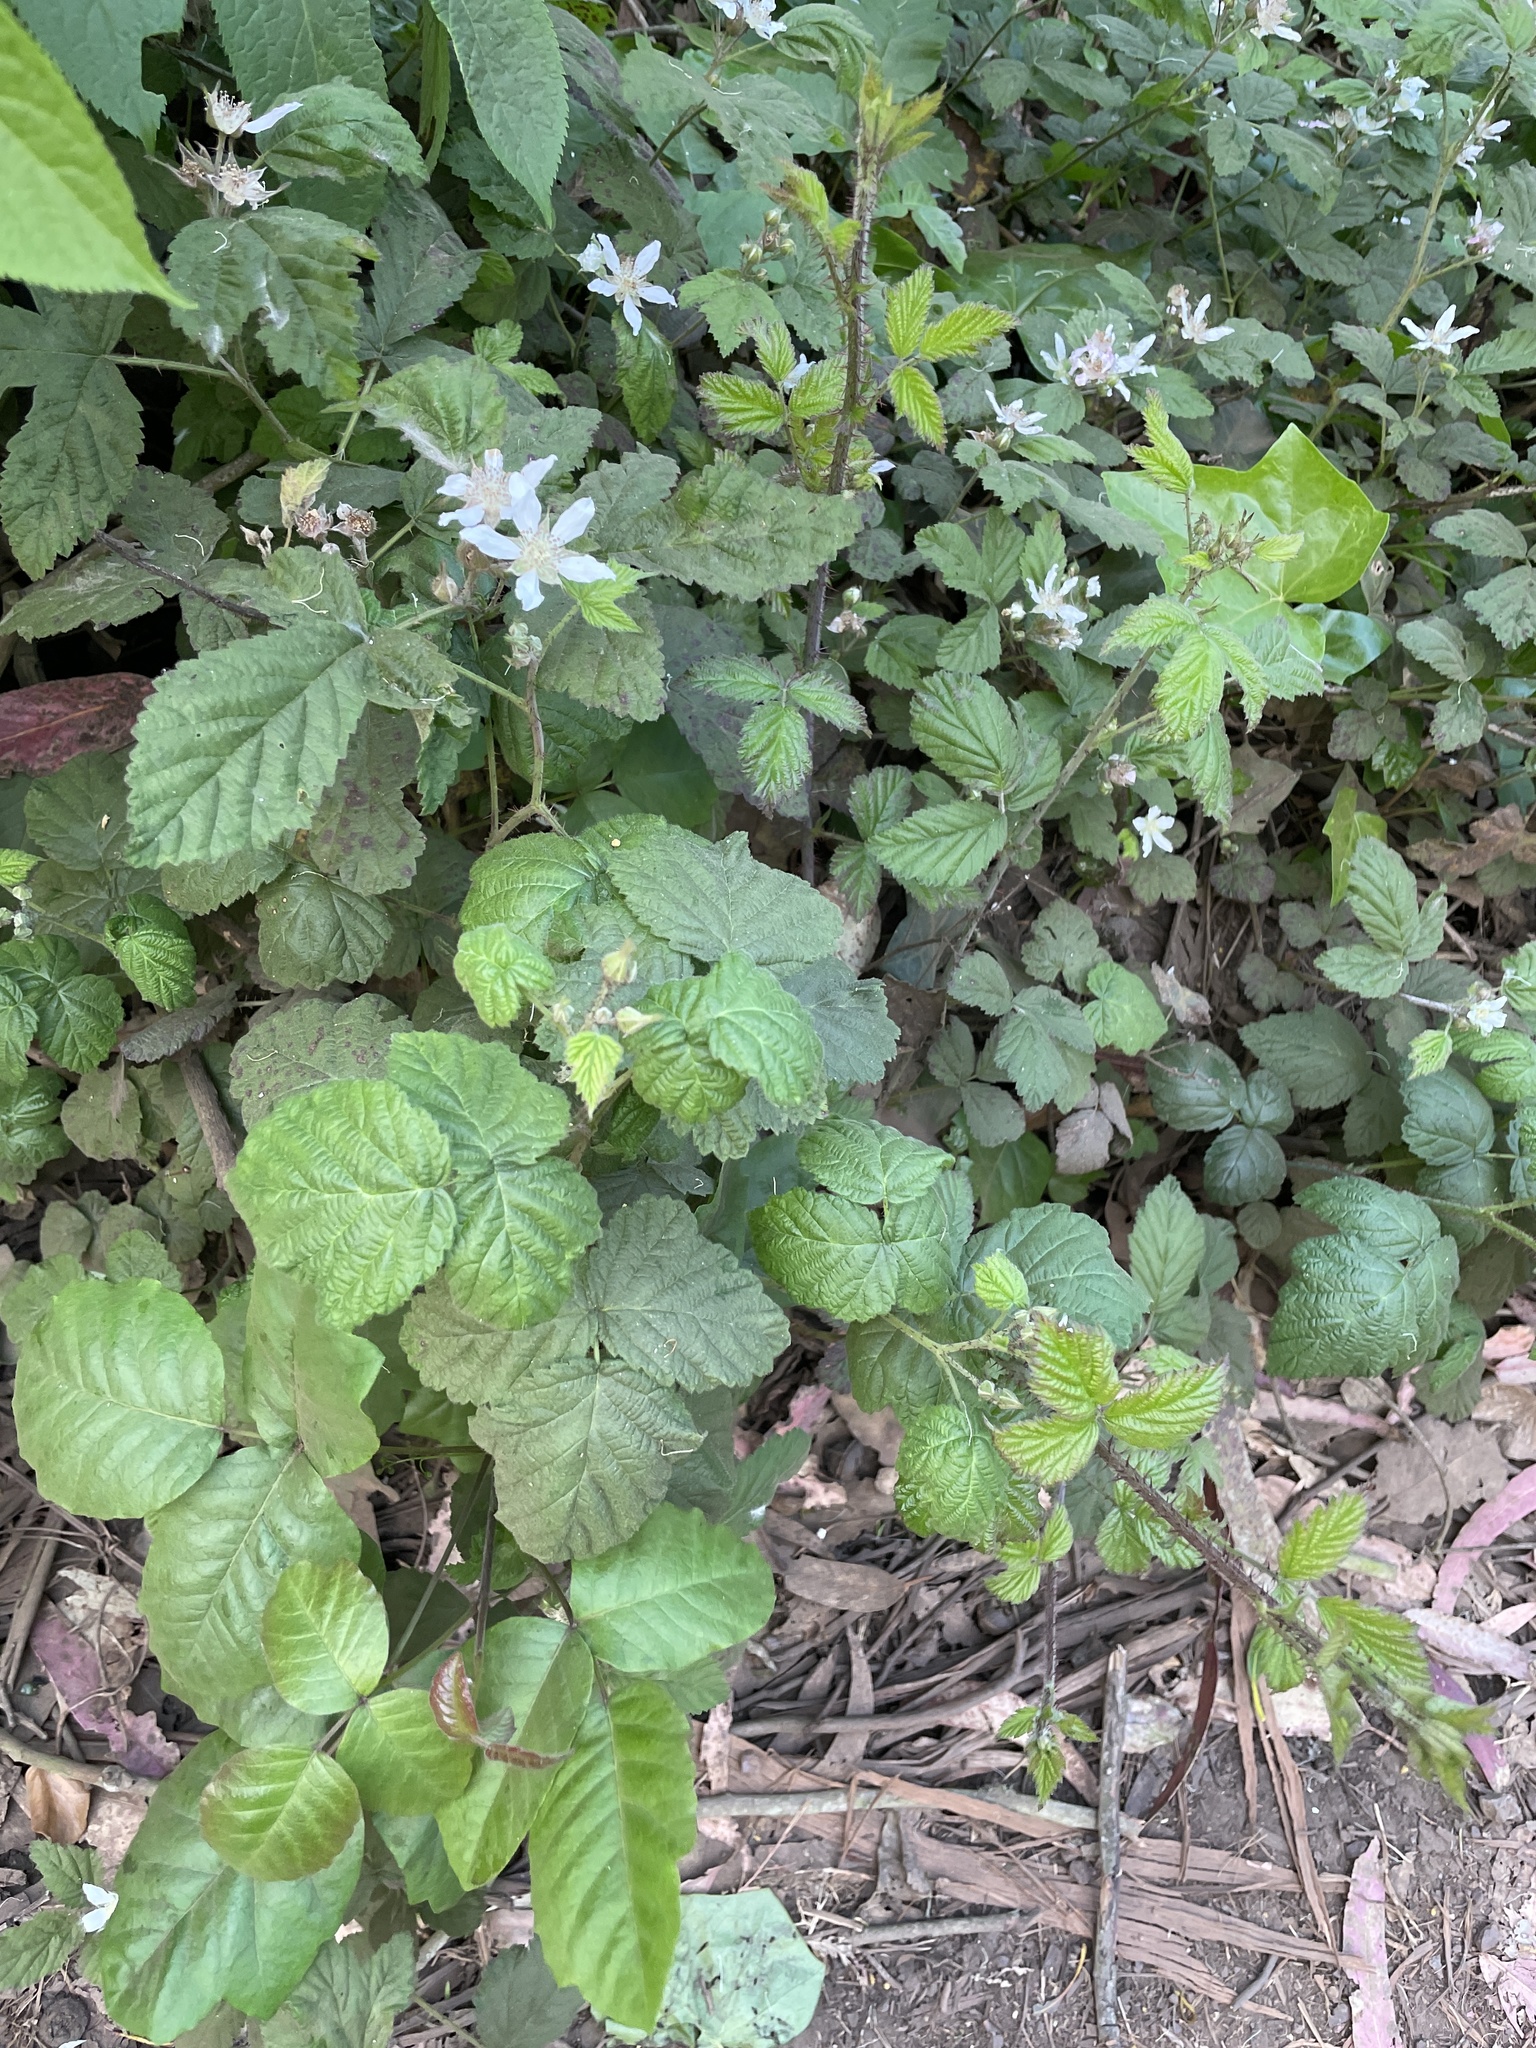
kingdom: Plantae
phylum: Tracheophyta
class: Magnoliopsida
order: Rosales
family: Rosaceae
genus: Rubus
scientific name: Rubus ursinus
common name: Pacific blackberry
